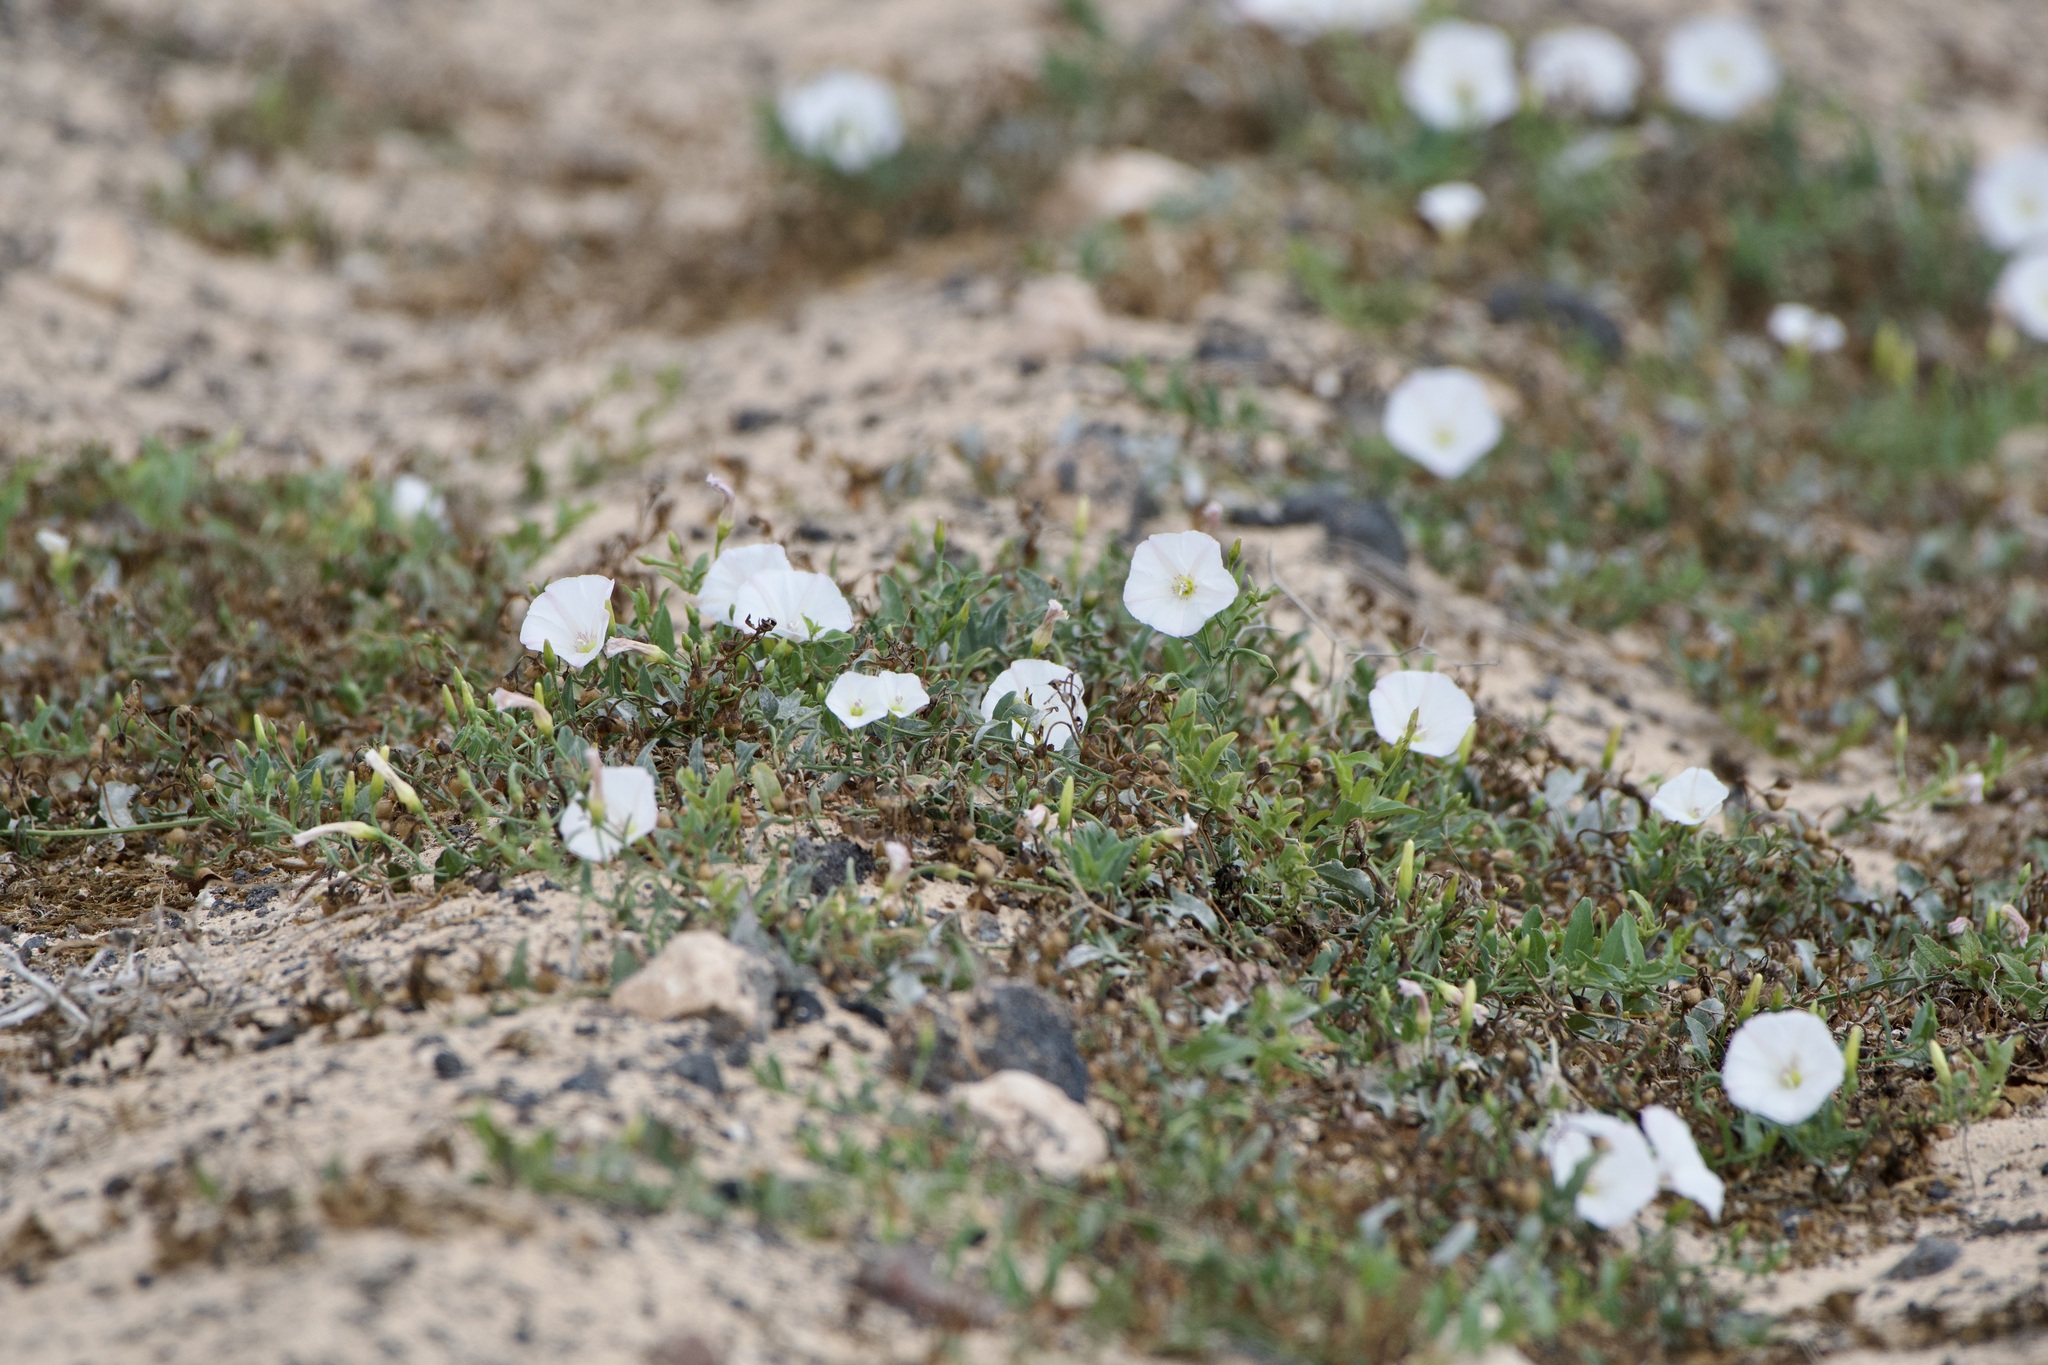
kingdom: Plantae
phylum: Tracheophyta
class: Magnoliopsida
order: Solanales
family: Convolvulaceae
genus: Convolvulus
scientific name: Convolvulus arvensis
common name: Field bindweed
